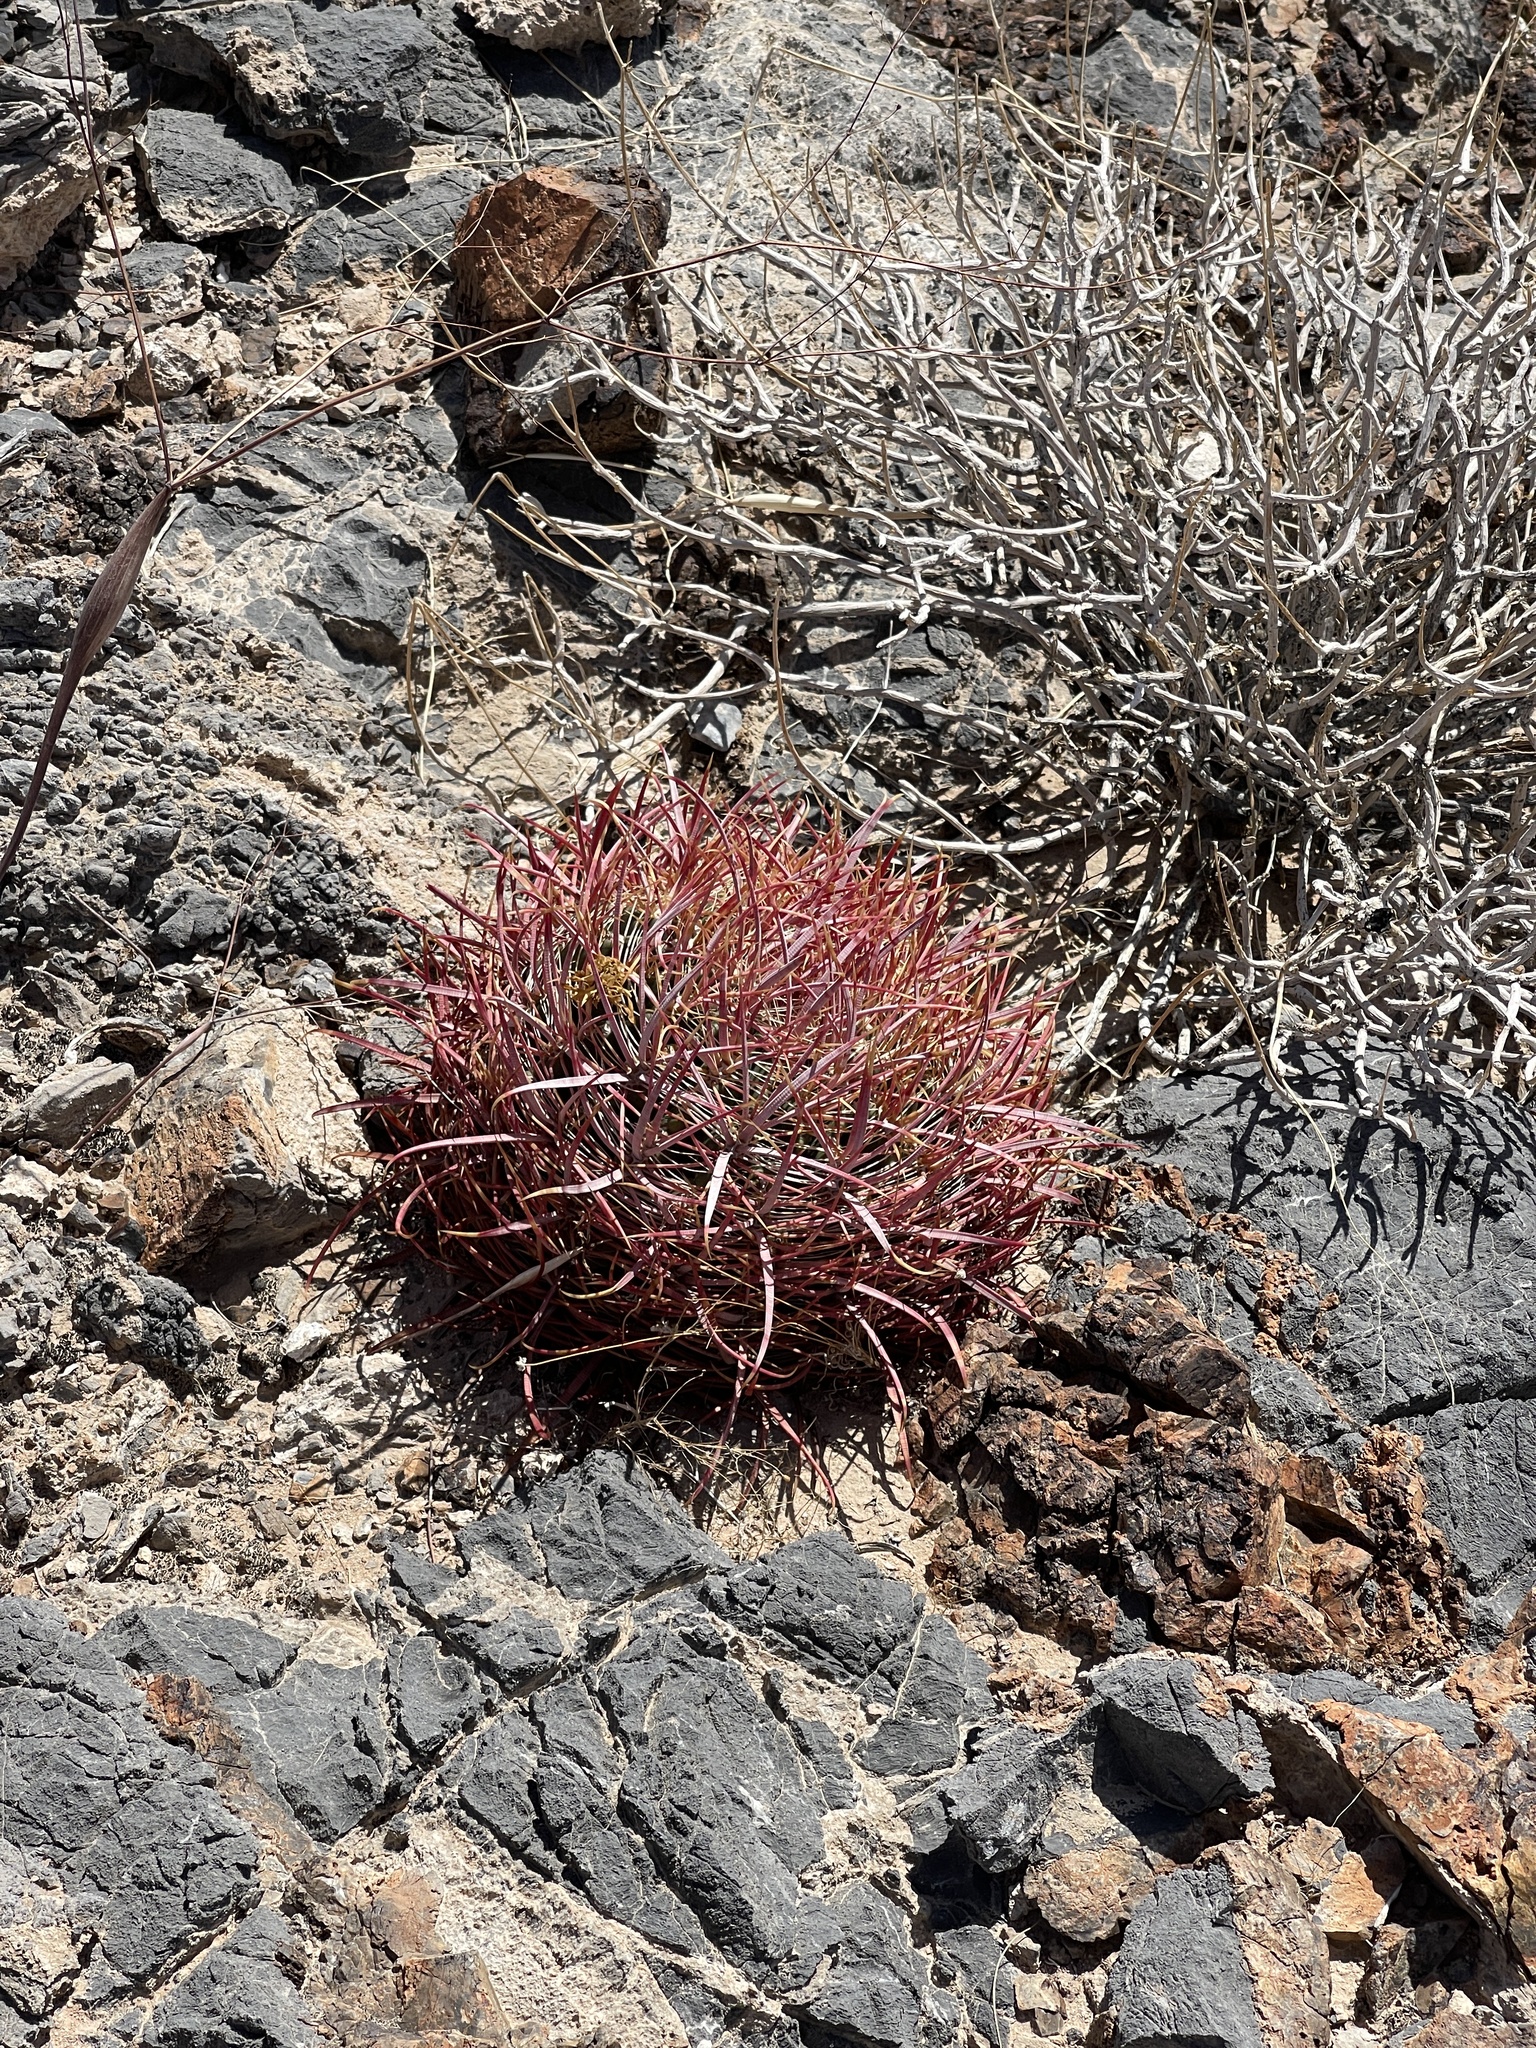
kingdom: Plantae
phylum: Tracheophyta
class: Magnoliopsida
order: Caryophyllales
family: Cactaceae
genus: Ferocactus
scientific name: Ferocactus cylindraceus
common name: California barrel cactus
